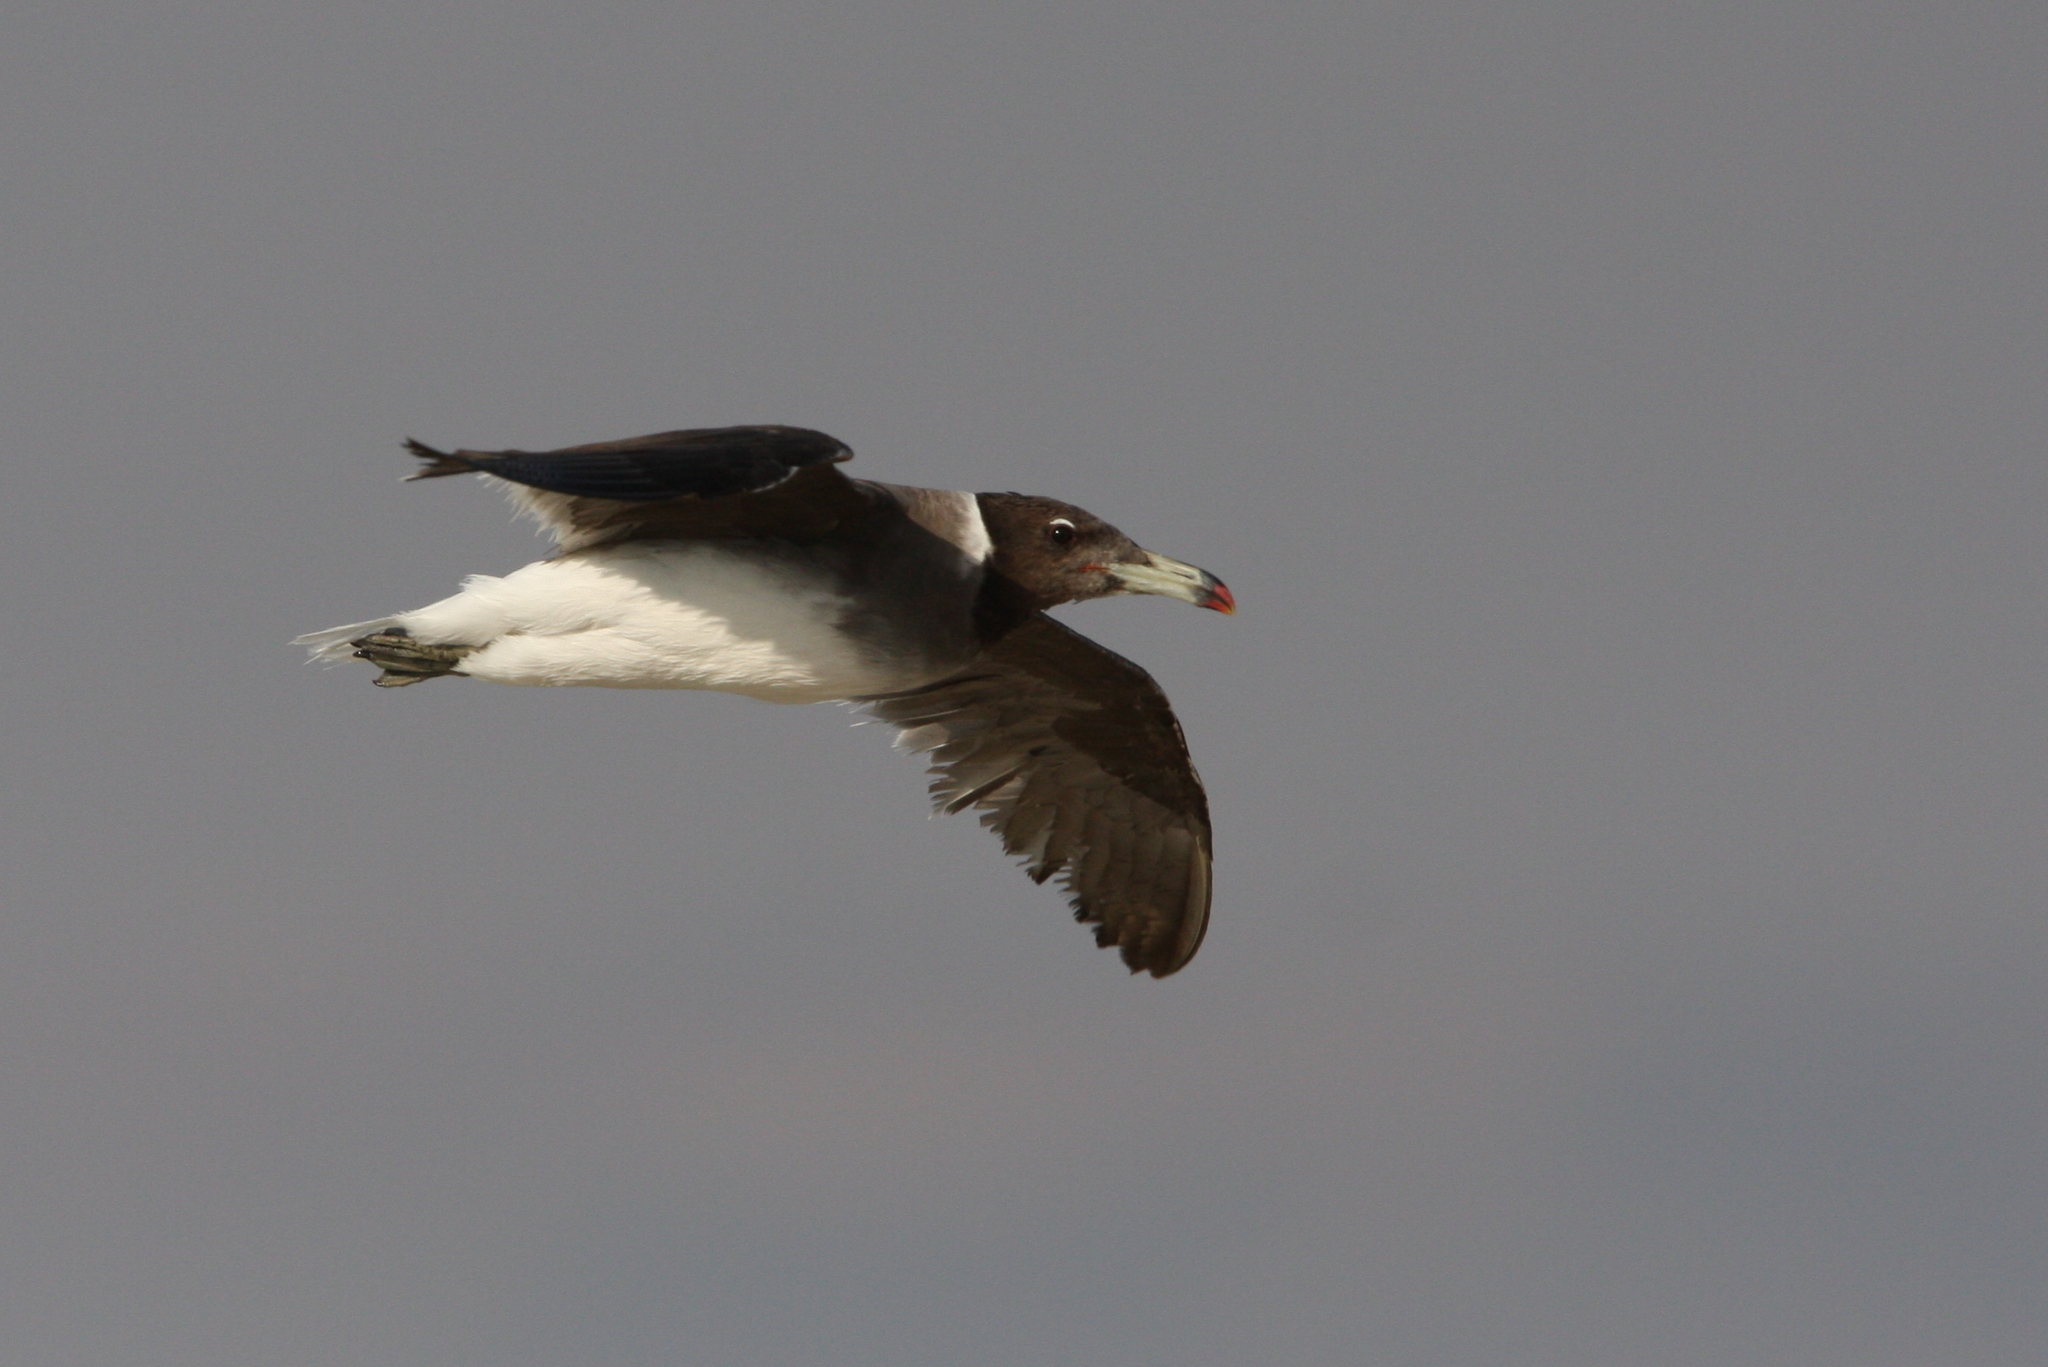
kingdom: Animalia
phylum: Chordata
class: Aves
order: Charadriiformes
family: Laridae
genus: Ichthyaetus
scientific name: Ichthyaetus hemprichii
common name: Sooty gull
